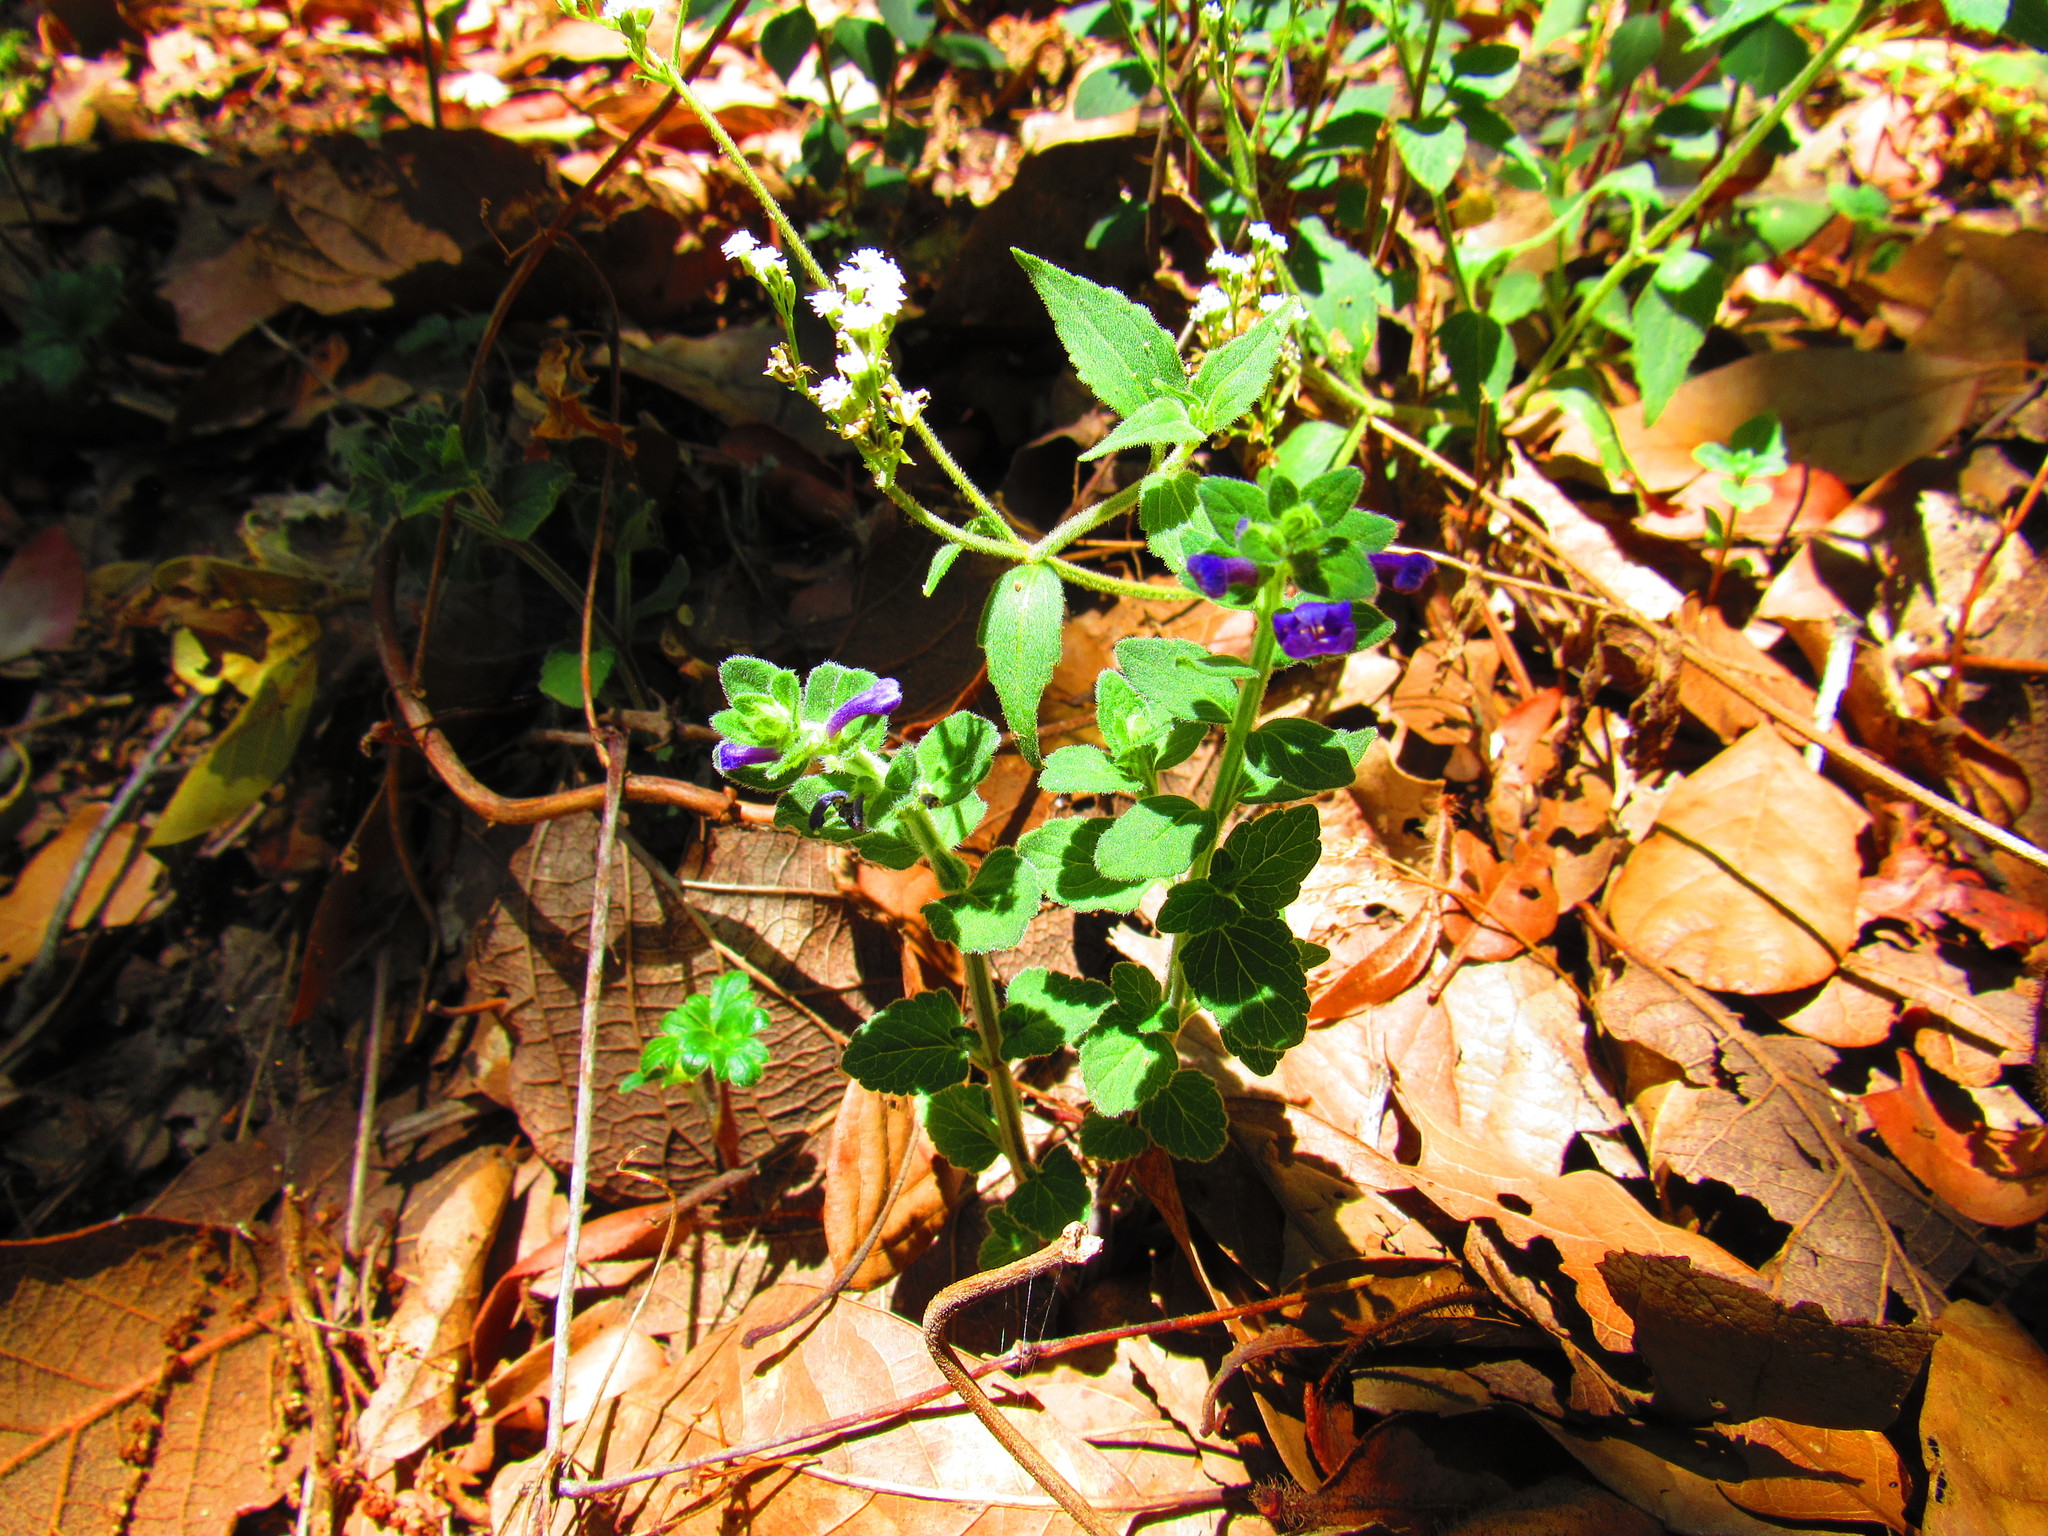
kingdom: Plantae
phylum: Tracheophyta
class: Magnoliopsida
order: Lamiales
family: Lamiaceae
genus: Scutellaria
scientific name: Scutellaria dumetorum
